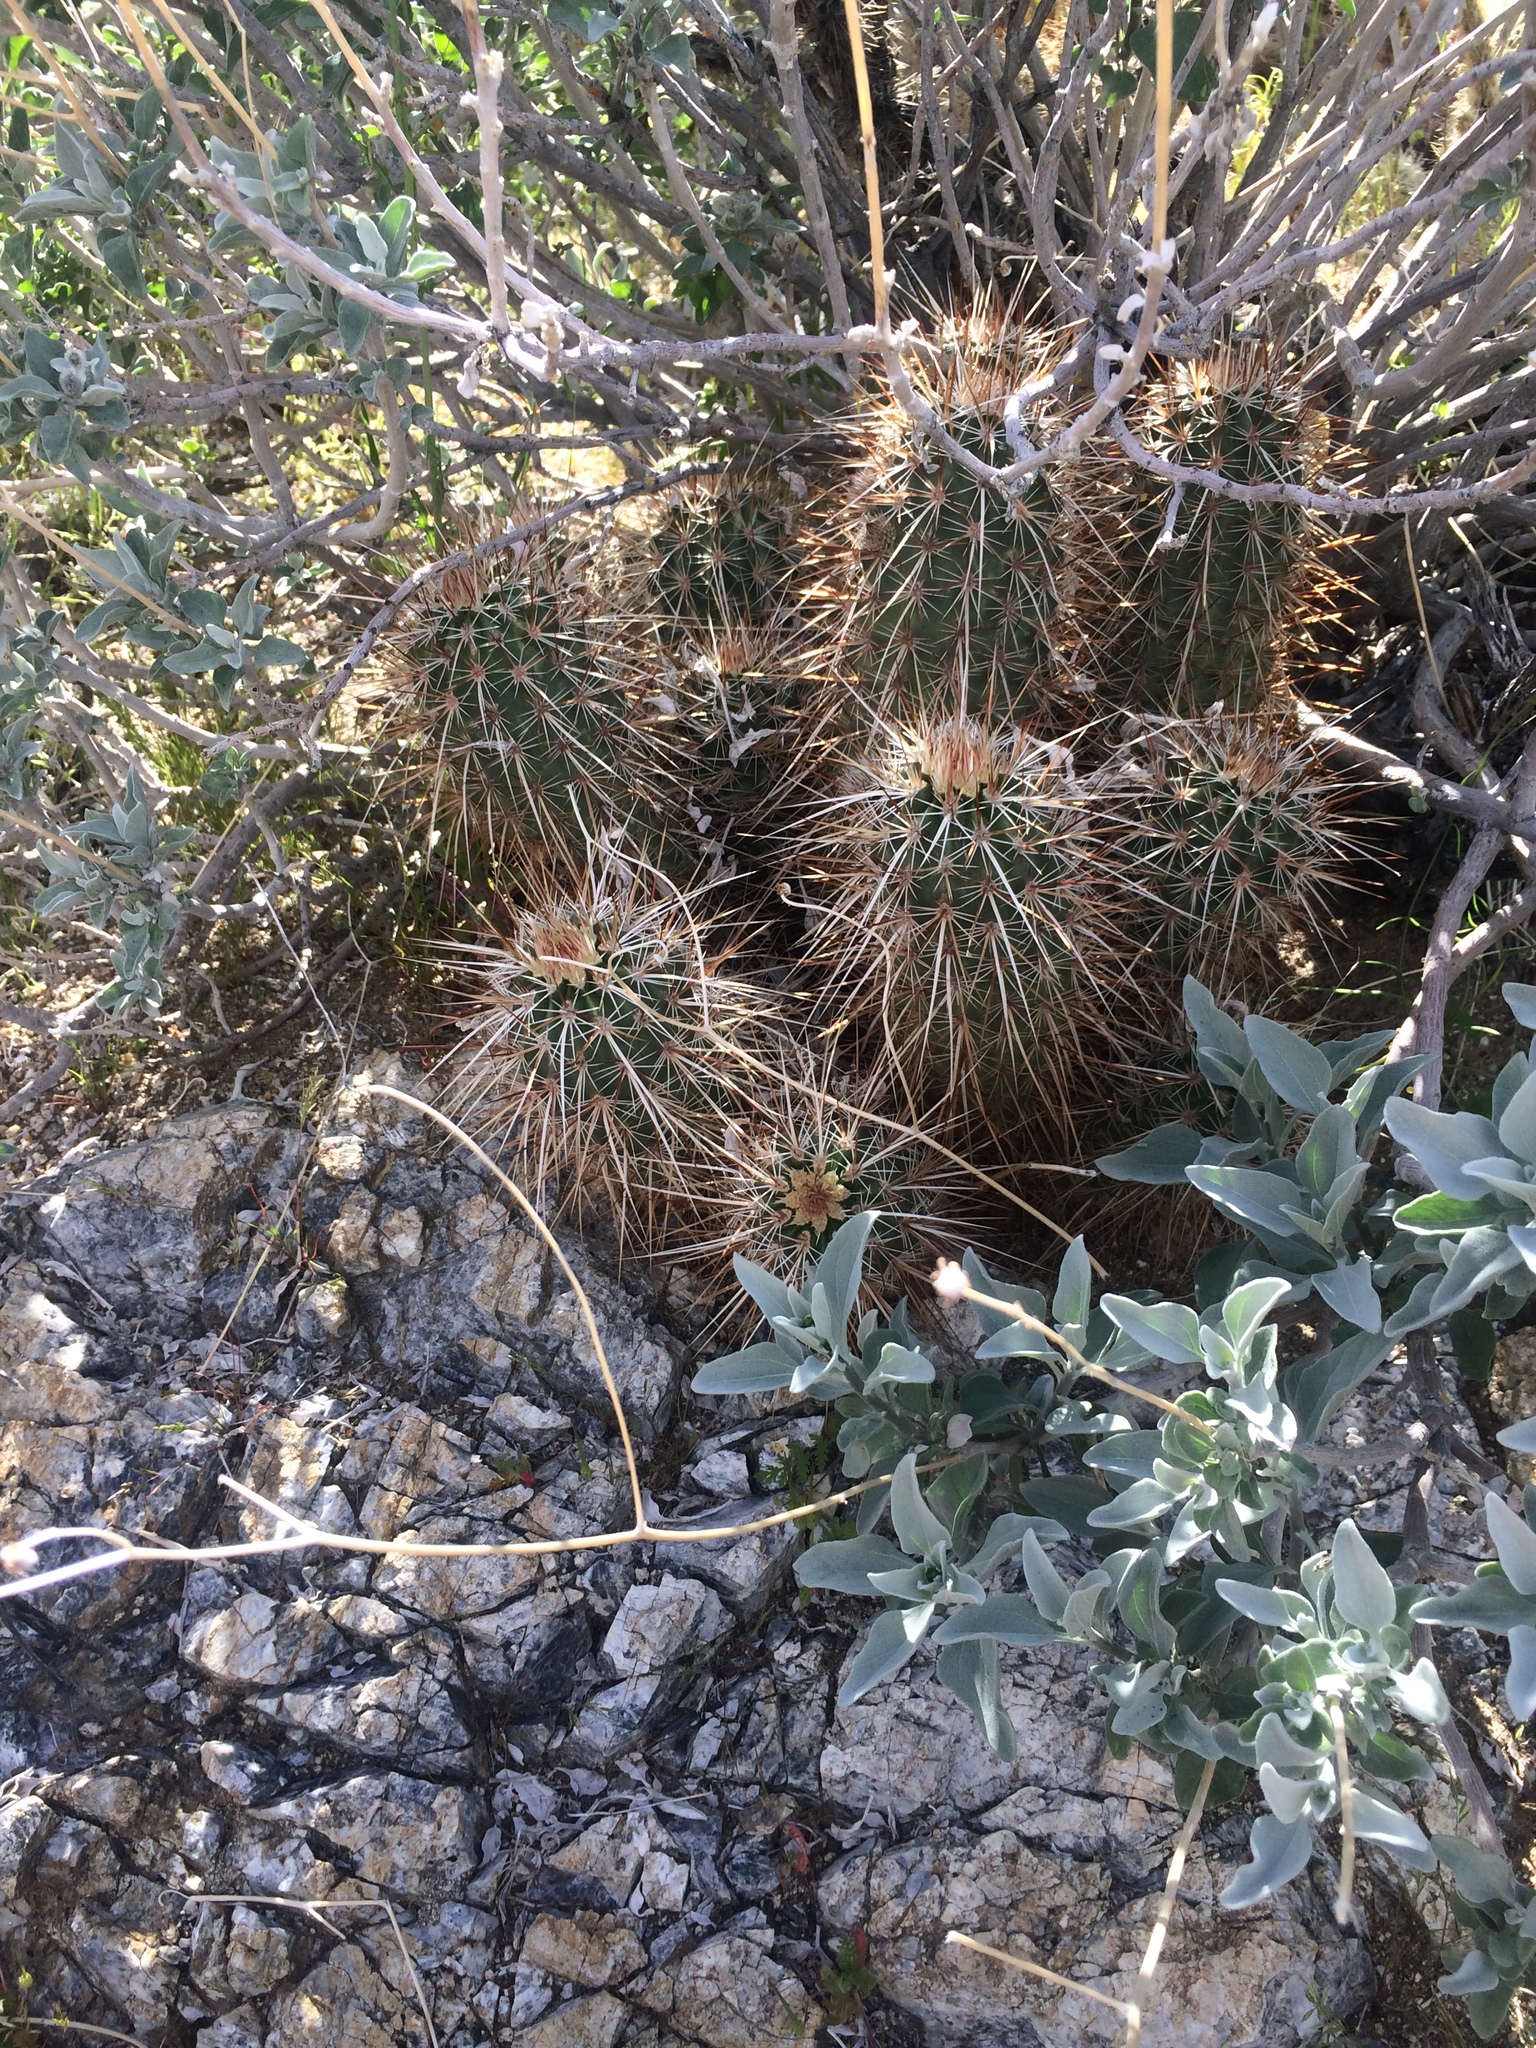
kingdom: Plantae
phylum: Tracheophyta
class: Magnoliopsida
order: Caryophyllales
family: Cactaceae
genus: Echinocereus
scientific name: Echinocereus engelmannii
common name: Engelmann's hedgehog cactus
